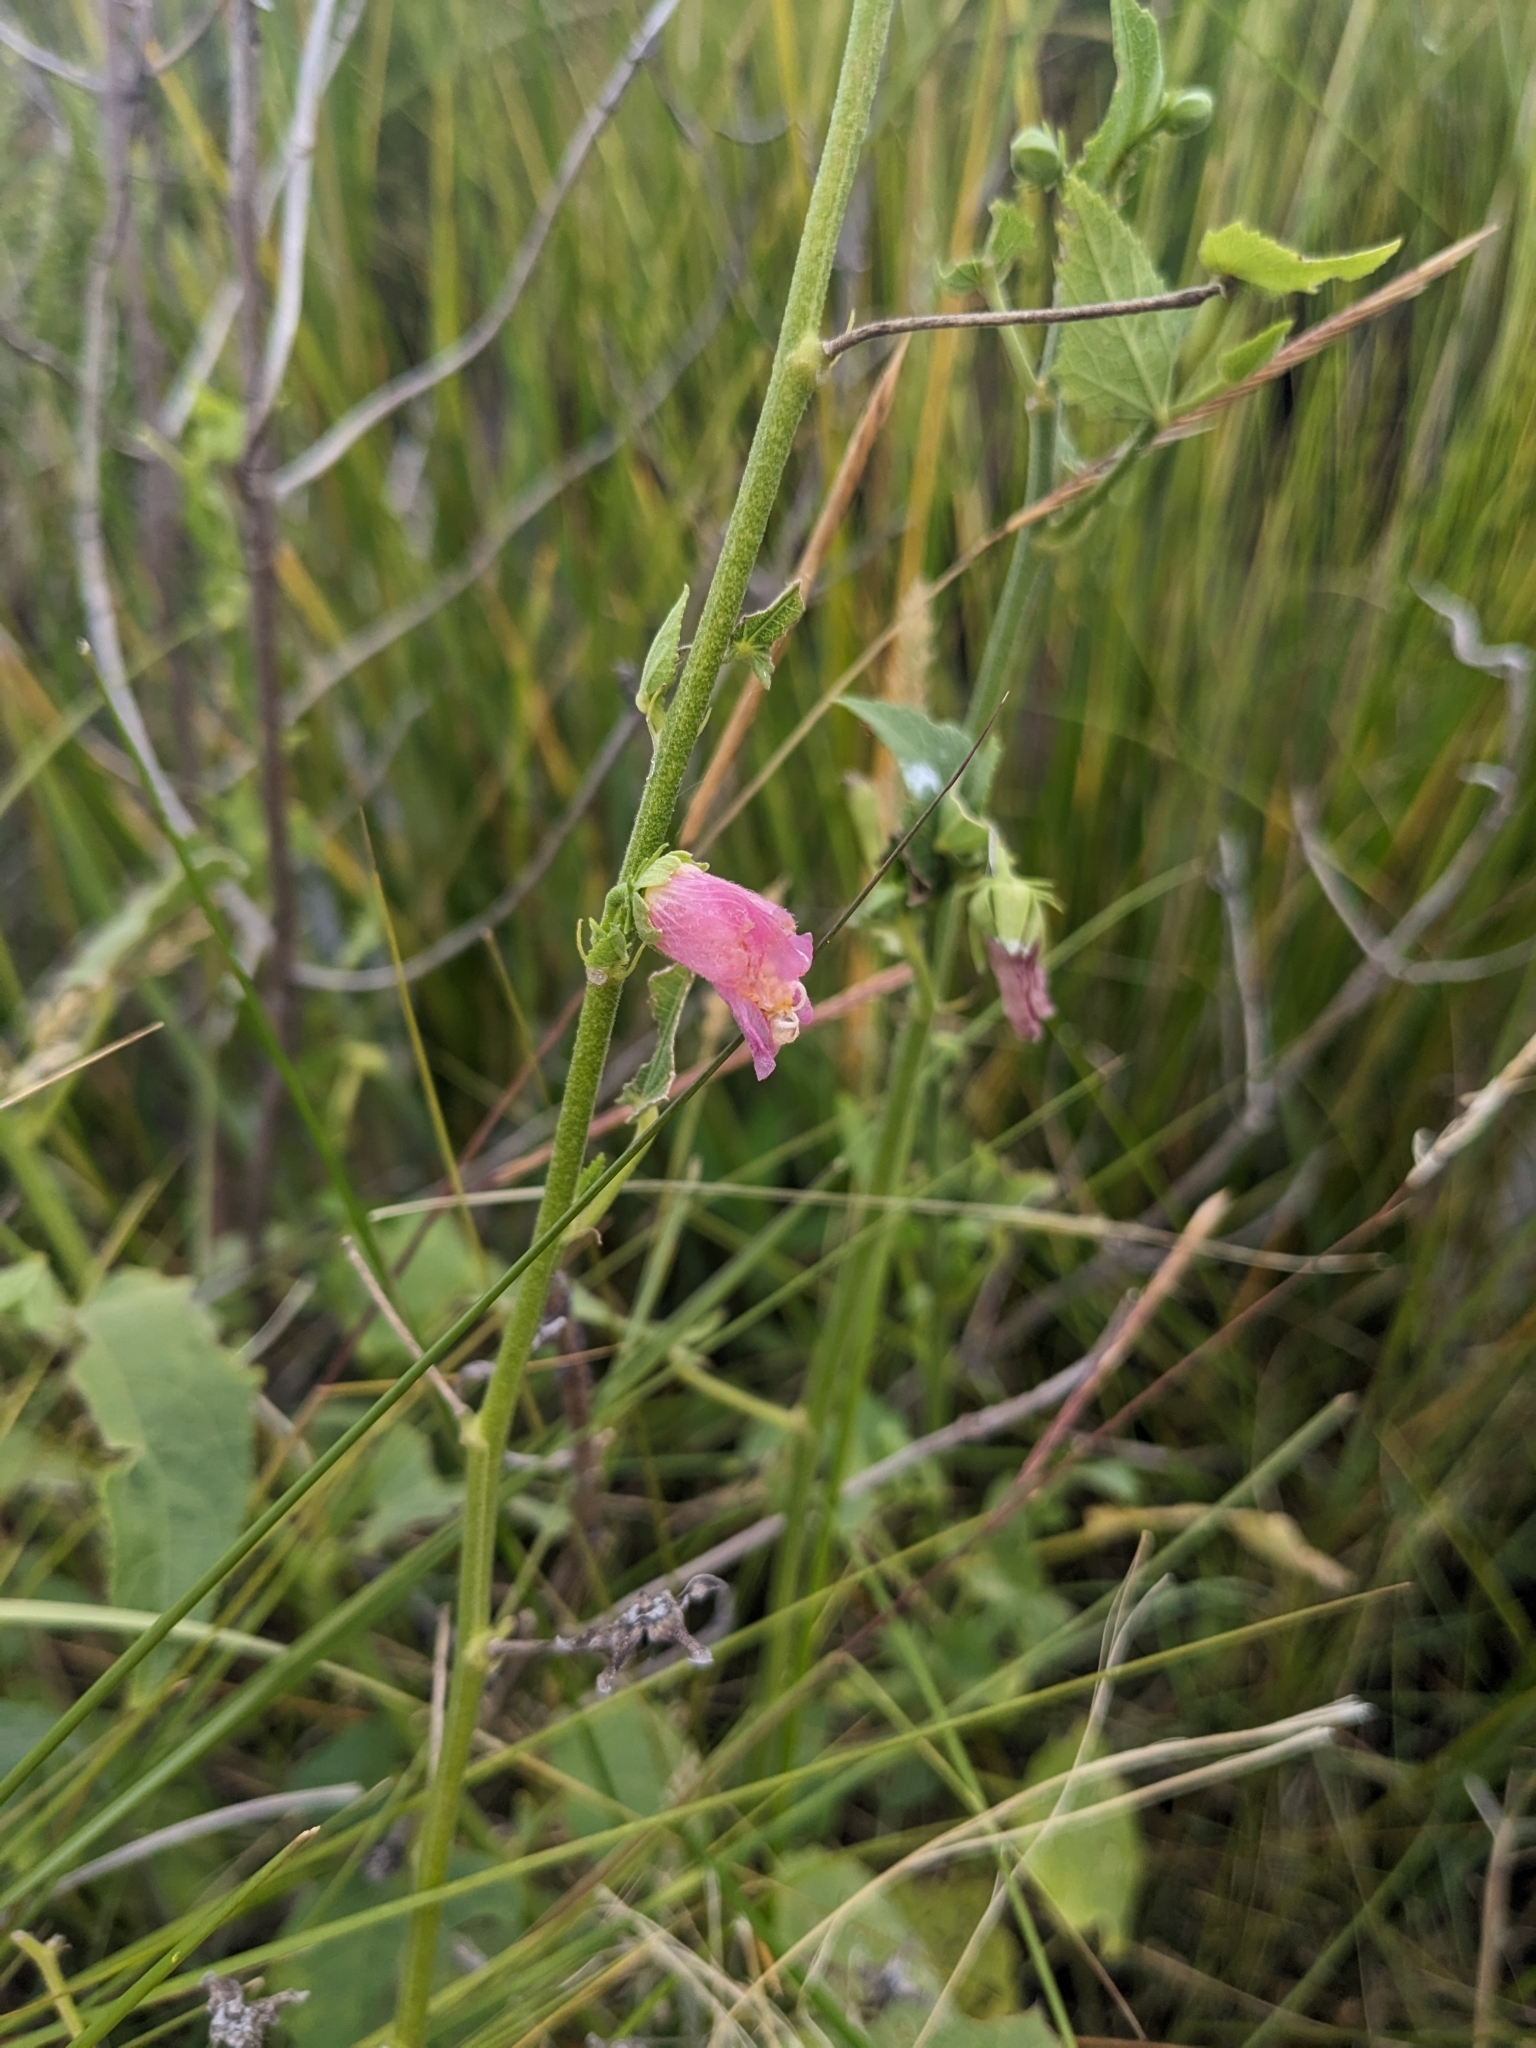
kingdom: Plantae
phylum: Tracheophyta
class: Magnoliopsida
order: Malvales
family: Malvaceae
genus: Kosteletzkya
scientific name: Kosteletzkya pentacarpos
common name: Virginia saltmarsh mallow
